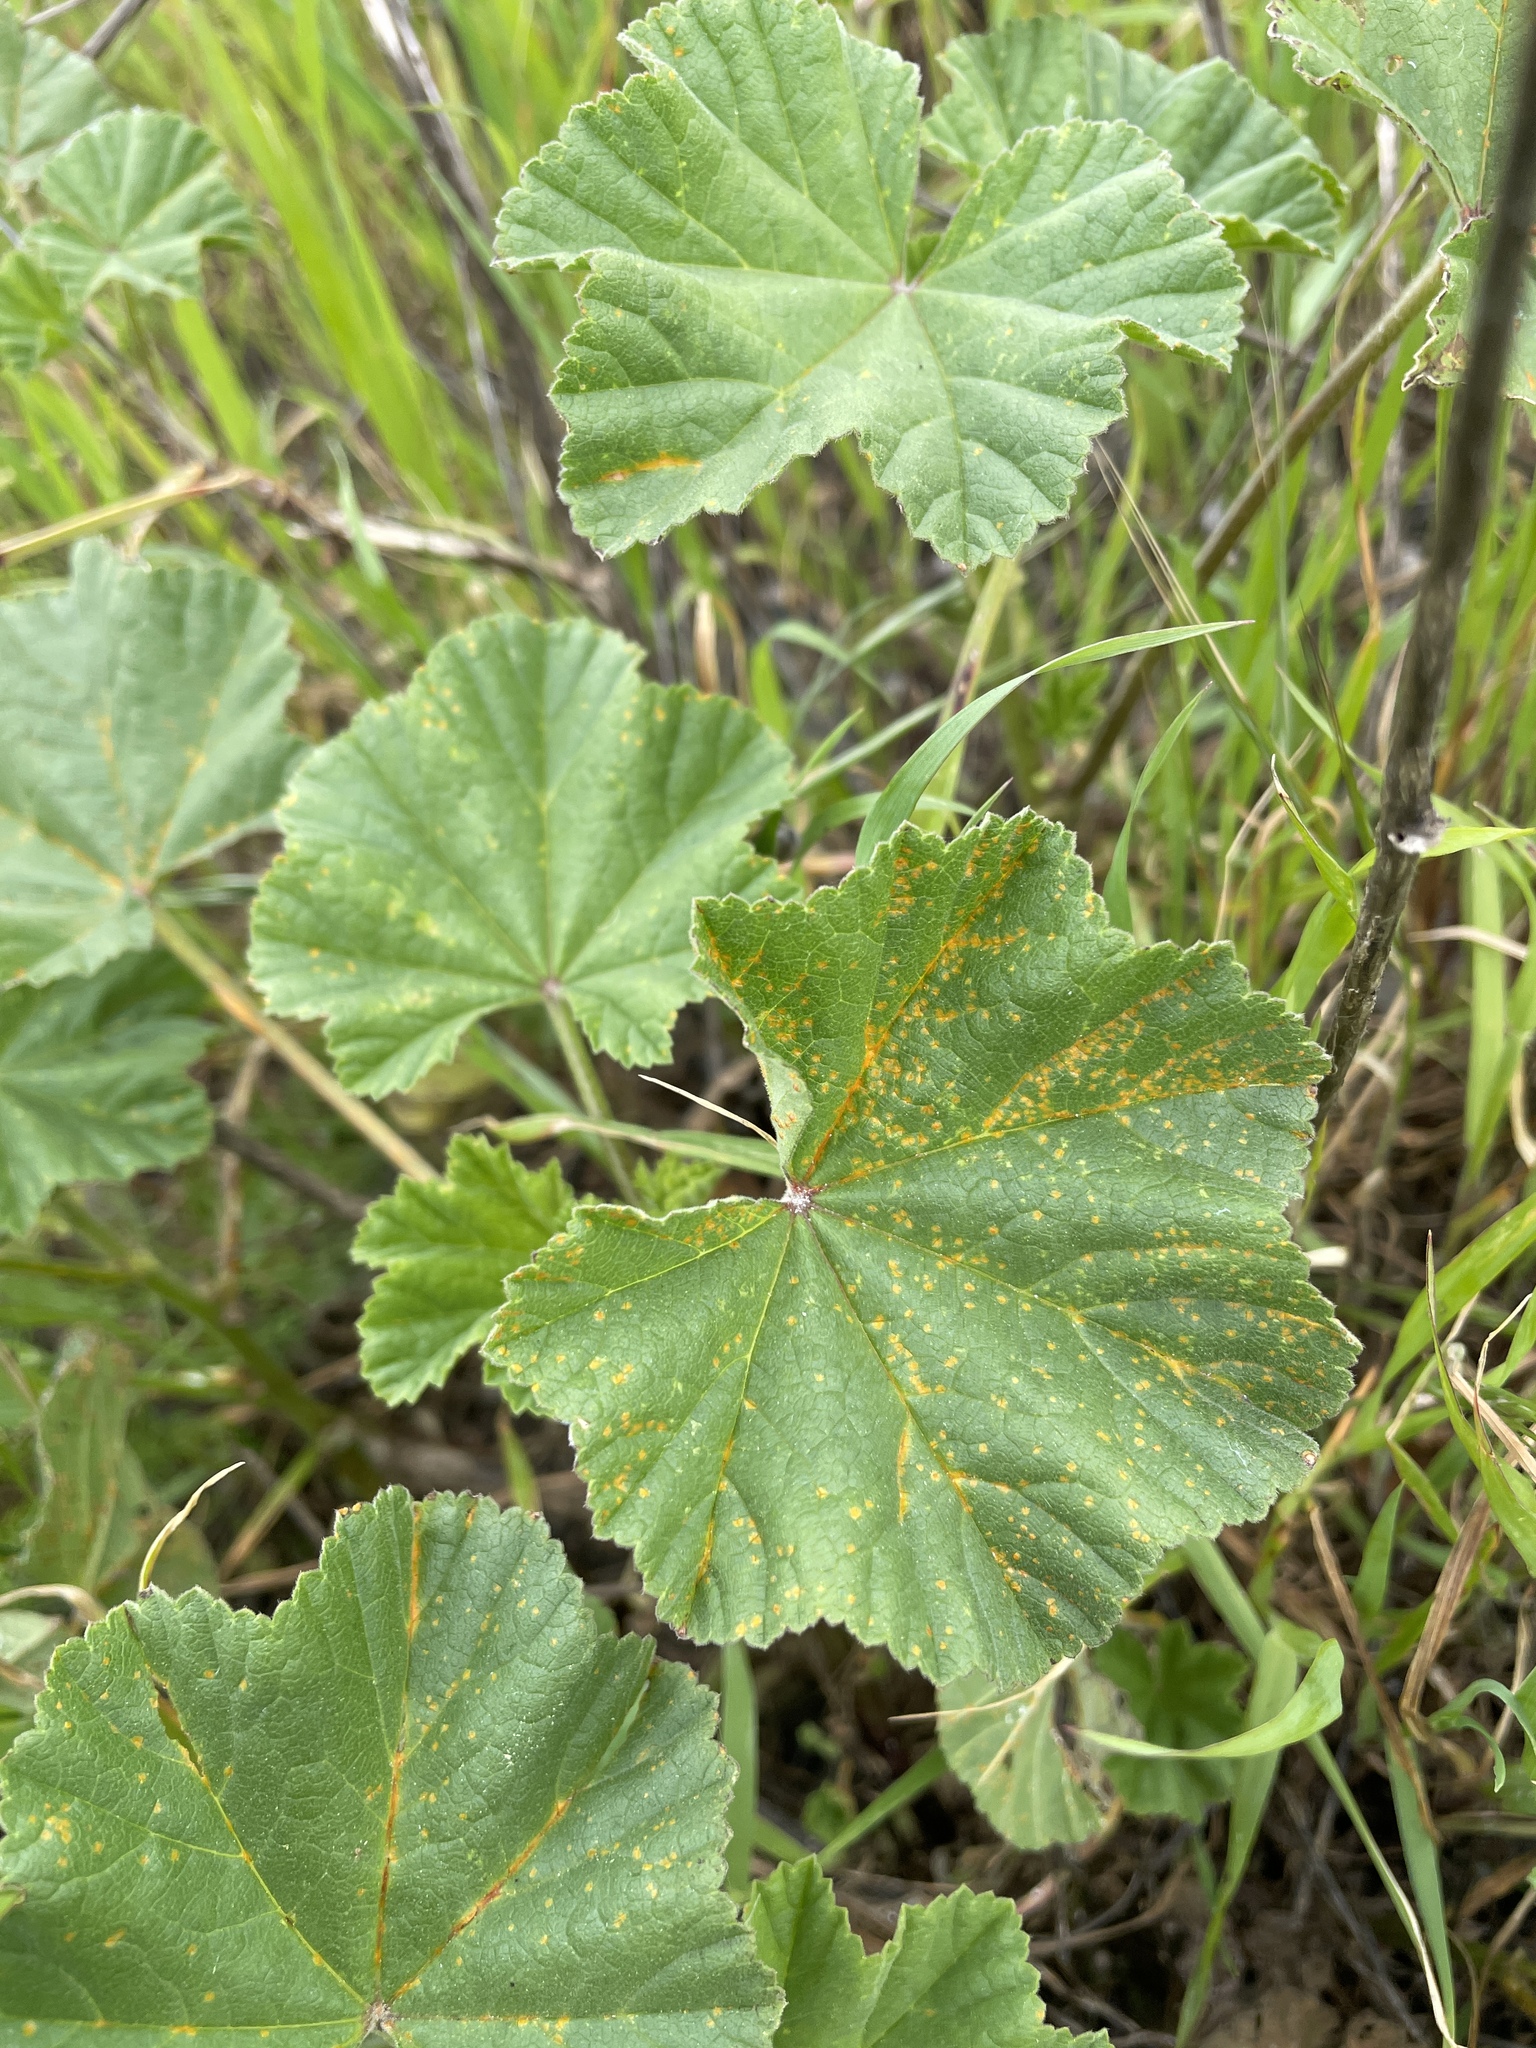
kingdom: Fungi
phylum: Basidiomycota
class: Pucciniomycetes
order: Pucciniales
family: Pucciniaceae
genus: Puccinia
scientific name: Puccinia malvacearum
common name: Hollyhock rust
